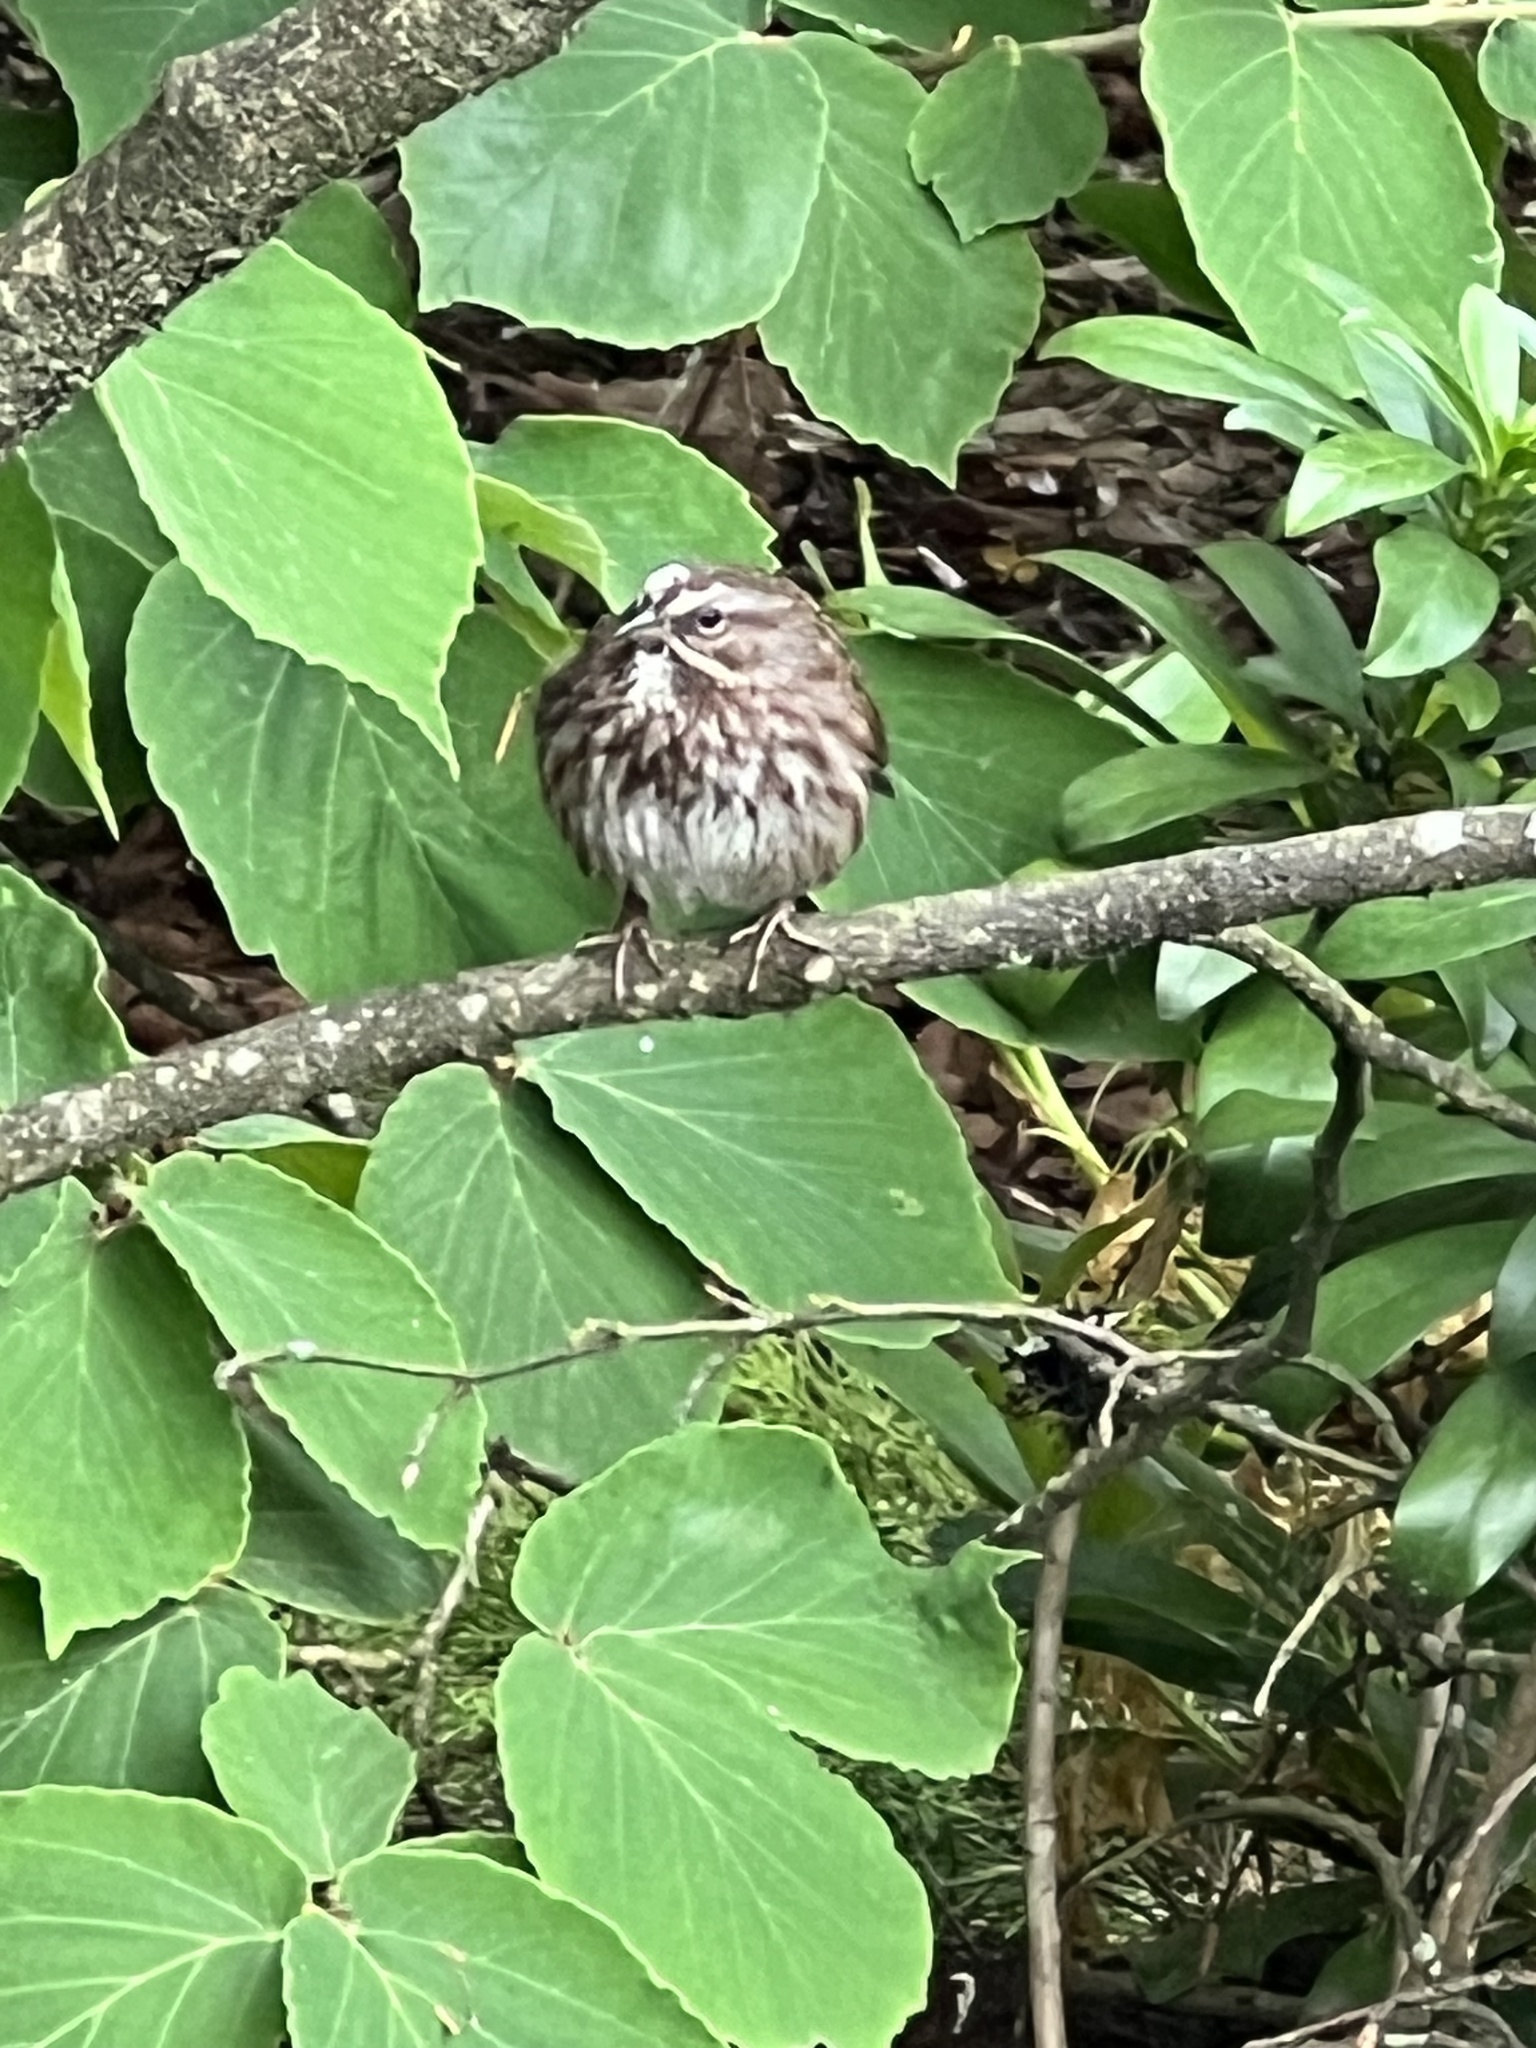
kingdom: Animalia
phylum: Chordata
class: Aves
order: Passeriformes
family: Passerellidae
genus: Melospiza
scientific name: Melospiza melodia
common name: Song sparrow
